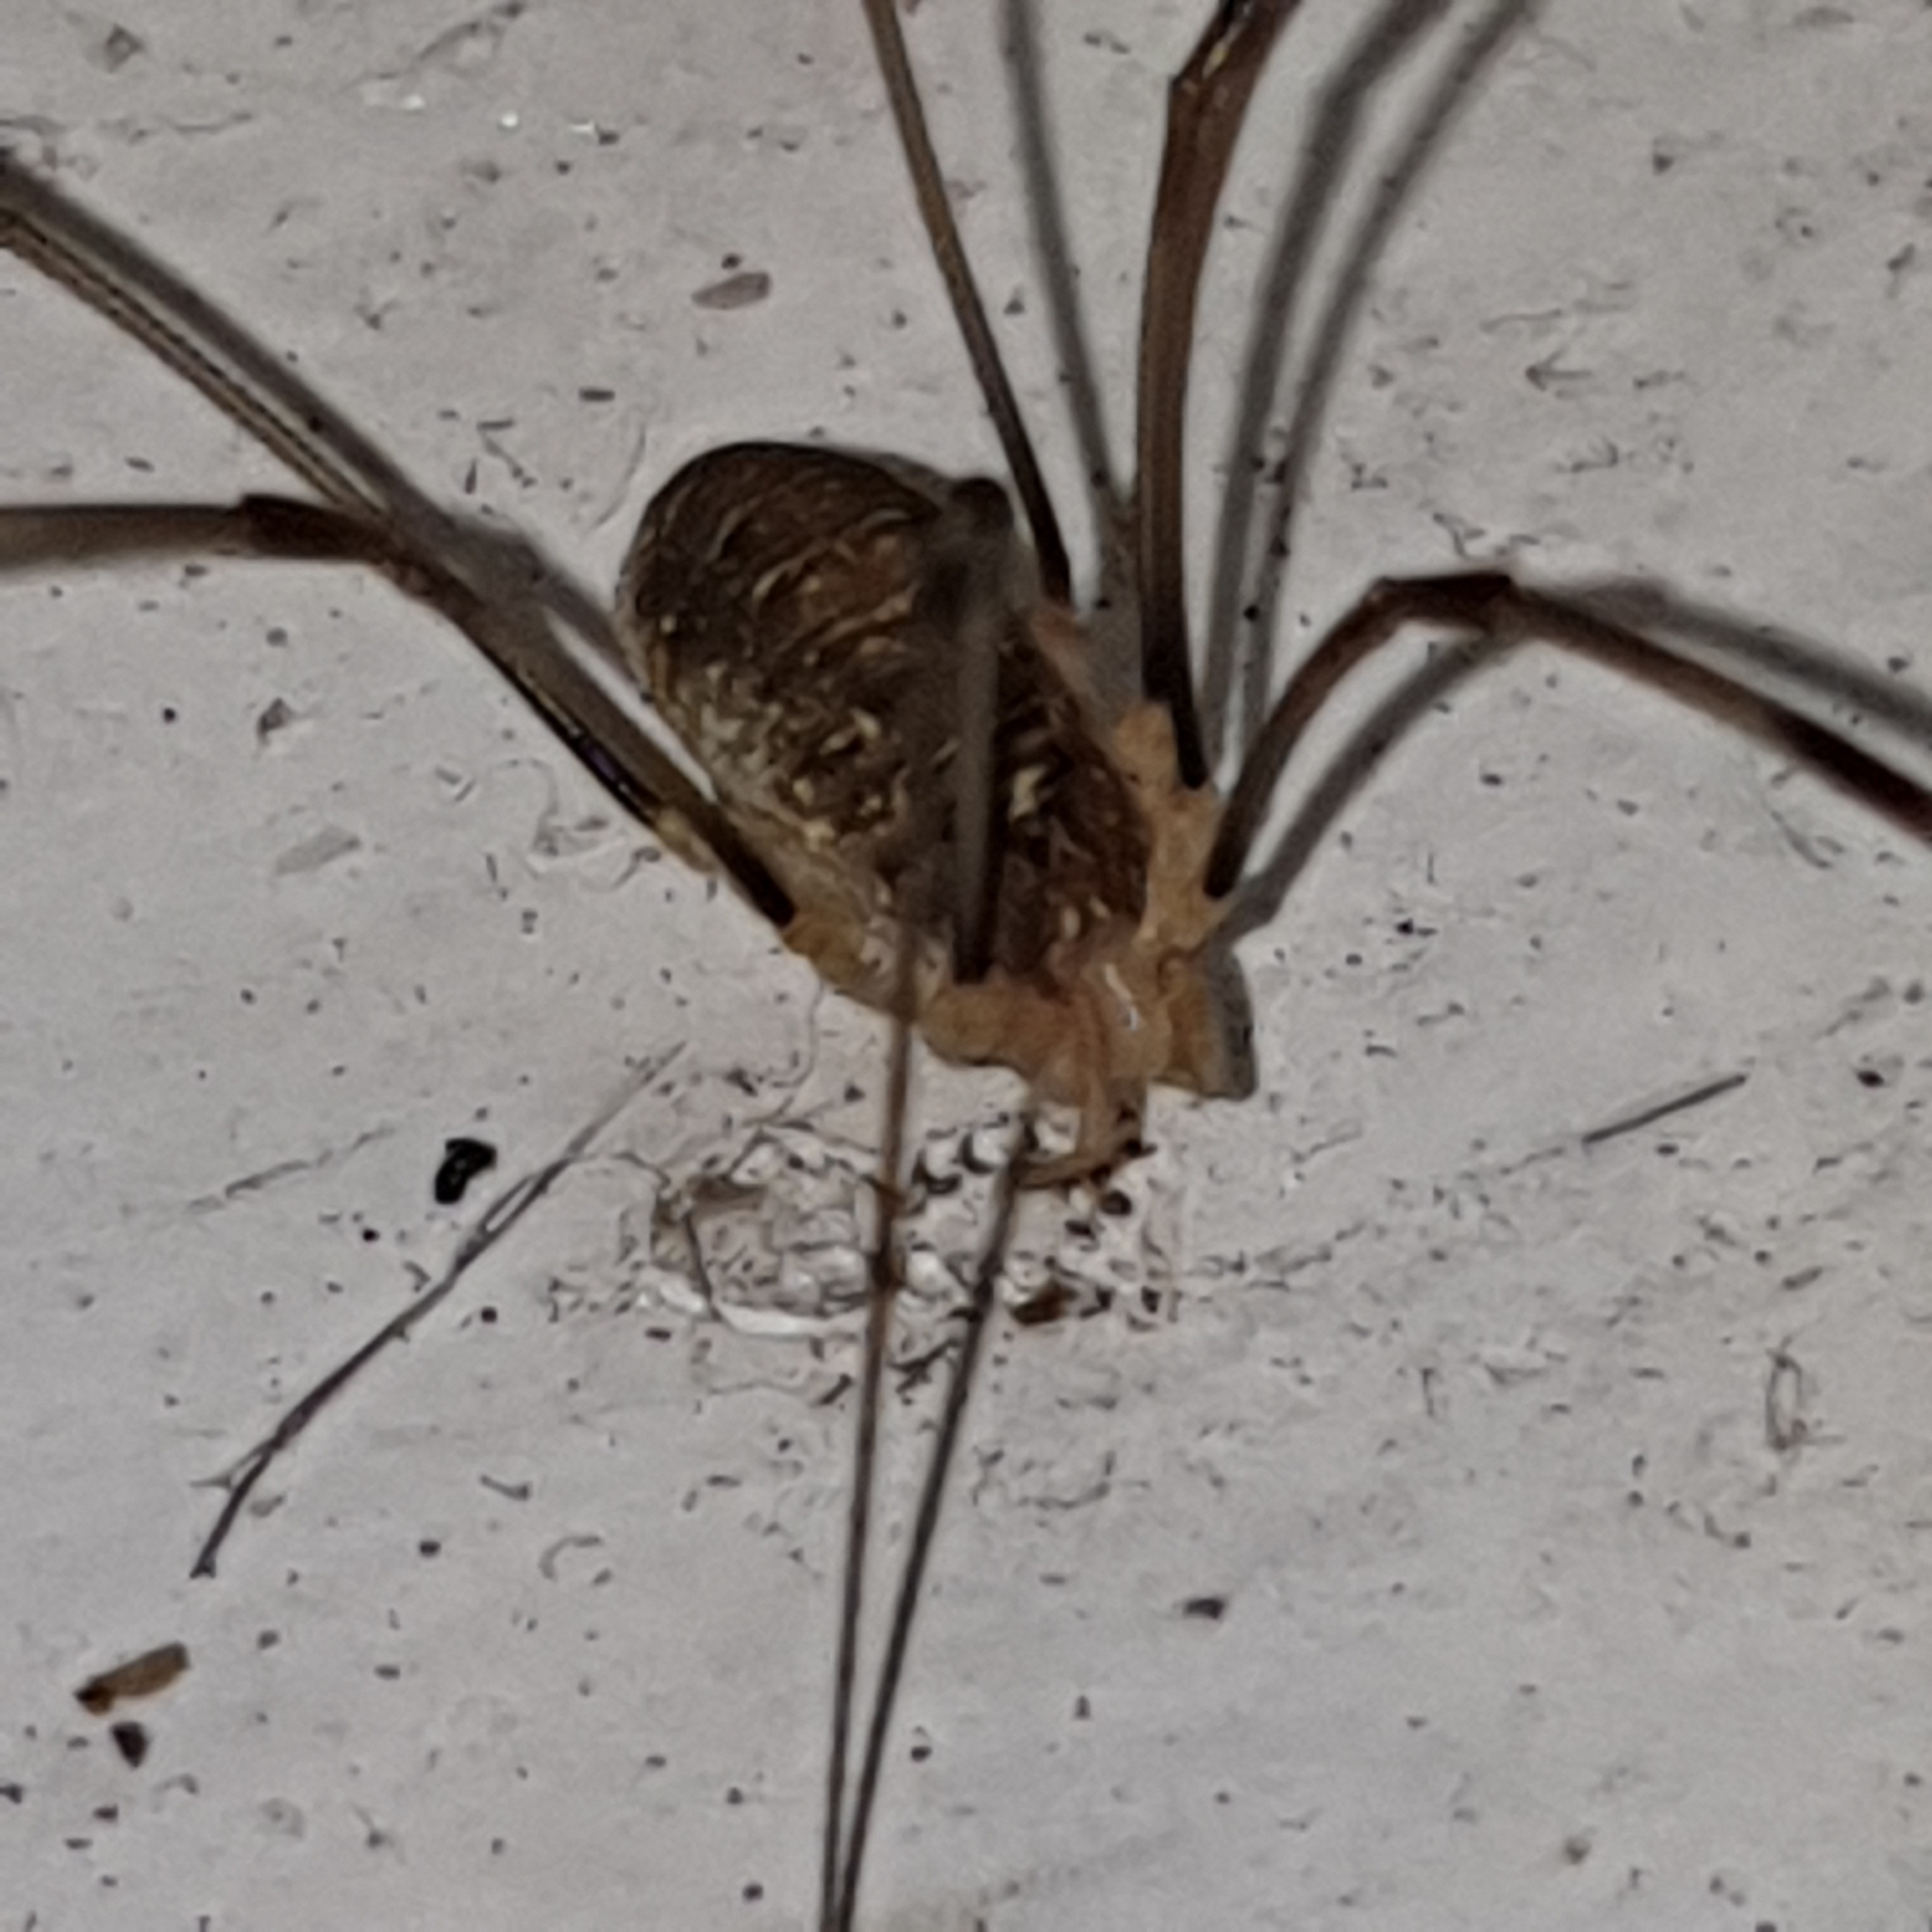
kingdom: Animalia
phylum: Arthropoda
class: Arachnida
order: Opiliones
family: Phalangiidae
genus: Opilio
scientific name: Opilio canestrinii
